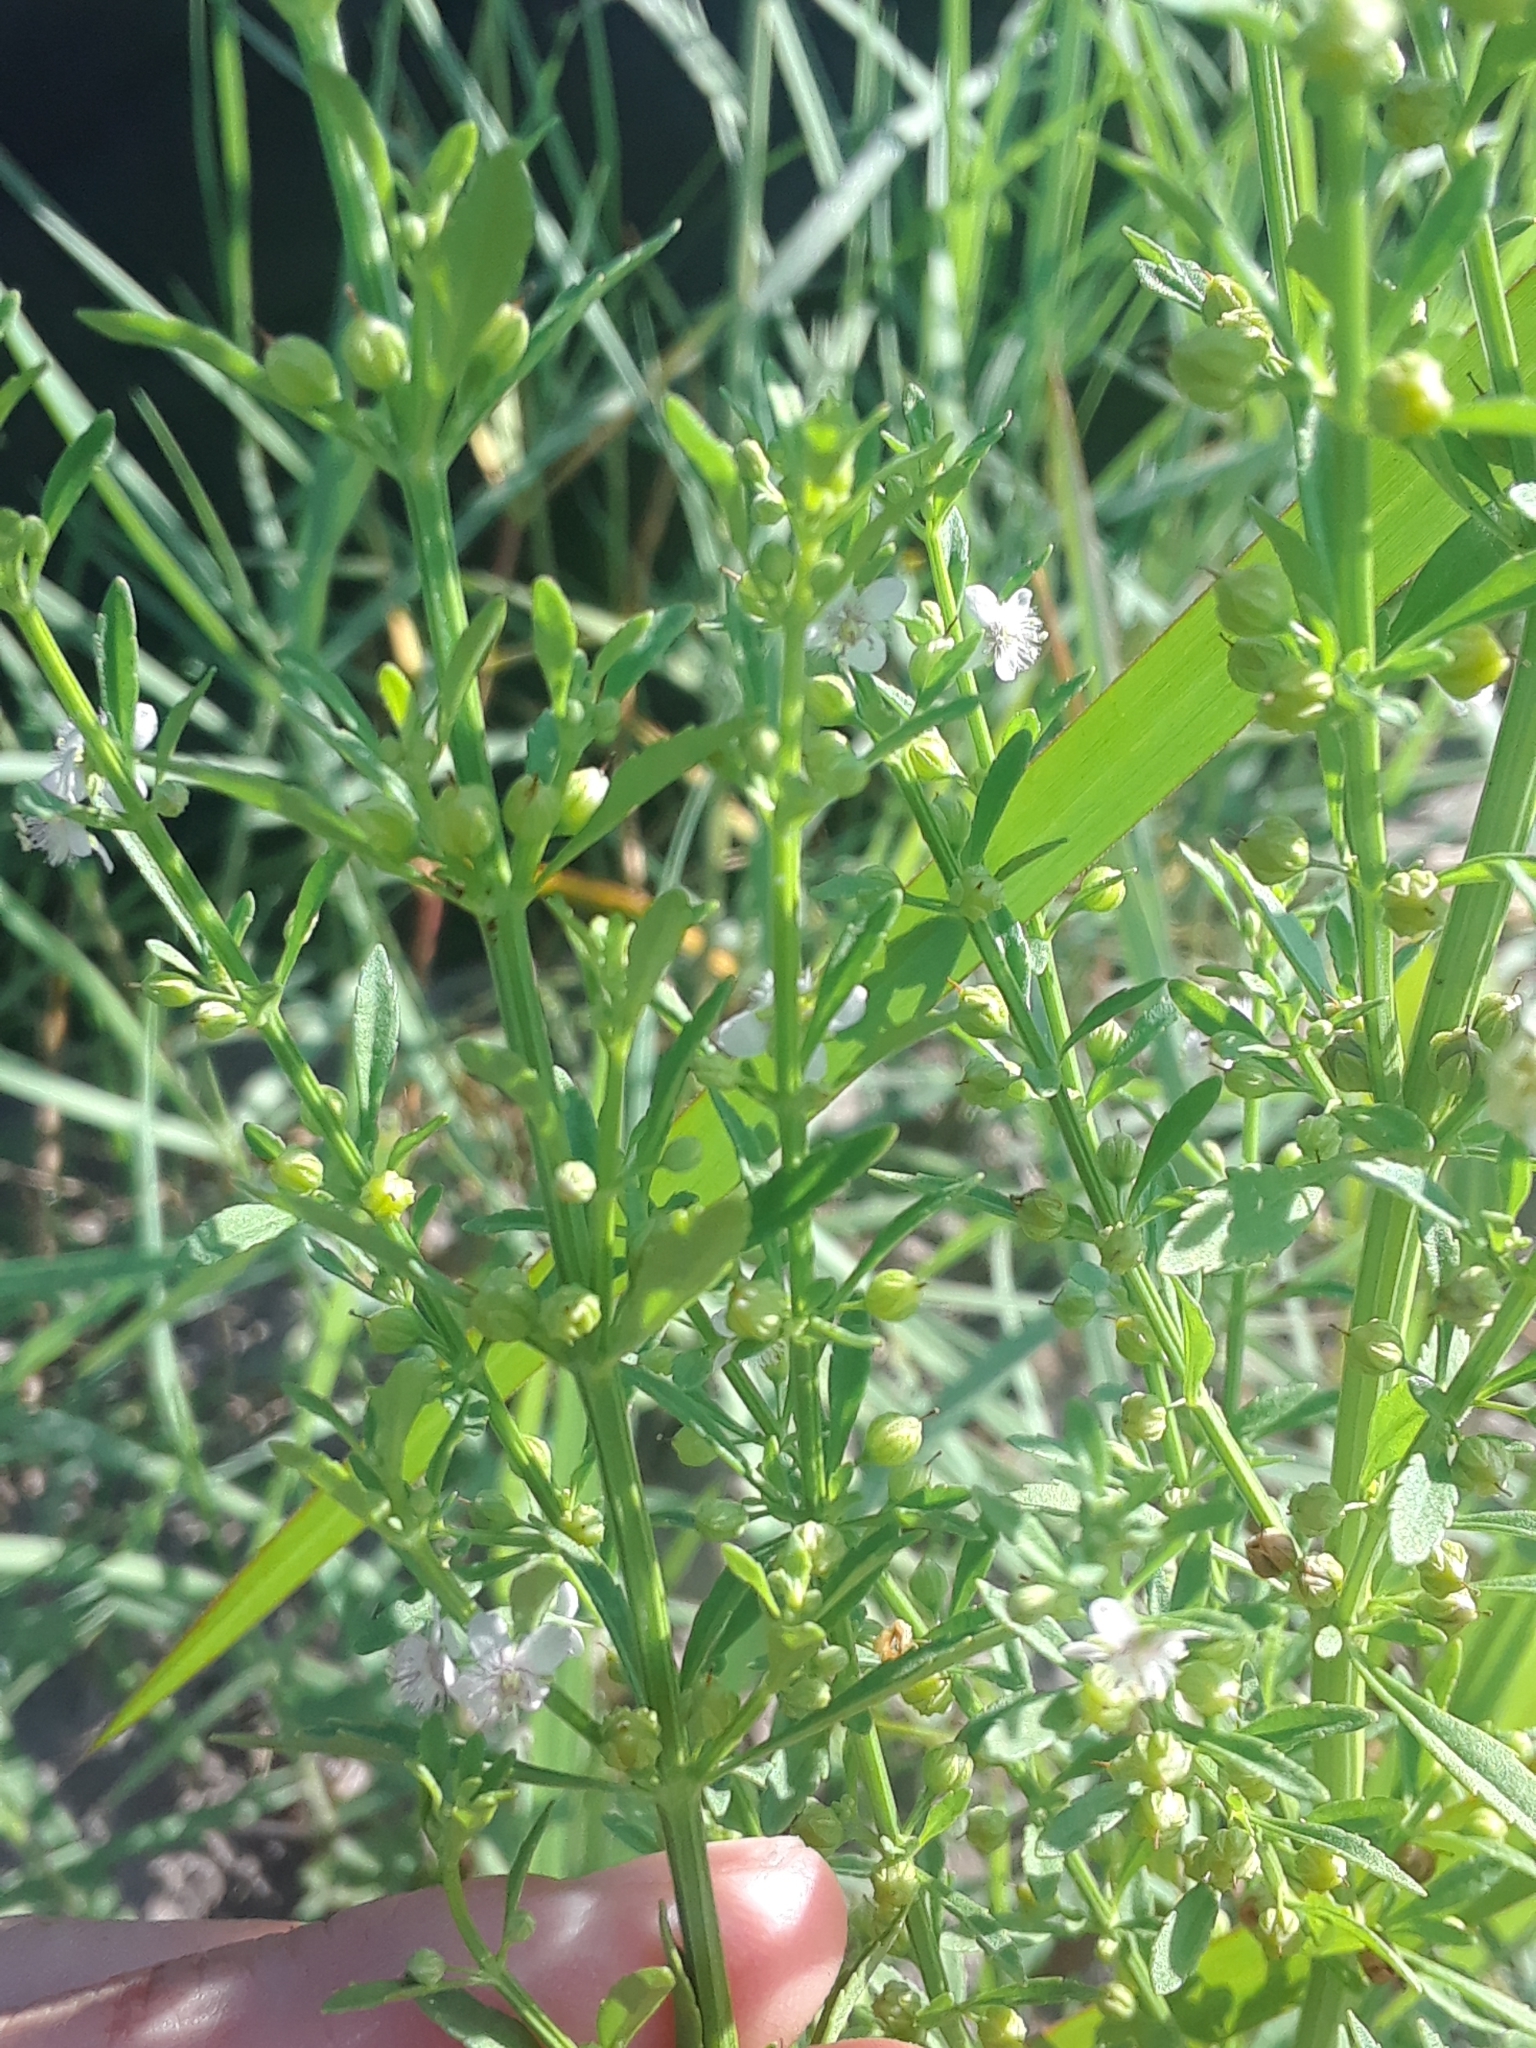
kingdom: Plantae
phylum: Tracheophyta
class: Magnoliopsida
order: Lamiales
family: Plantaginaceae
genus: Scoparia
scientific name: Scoparia dulcis
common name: Scoparia-weed
